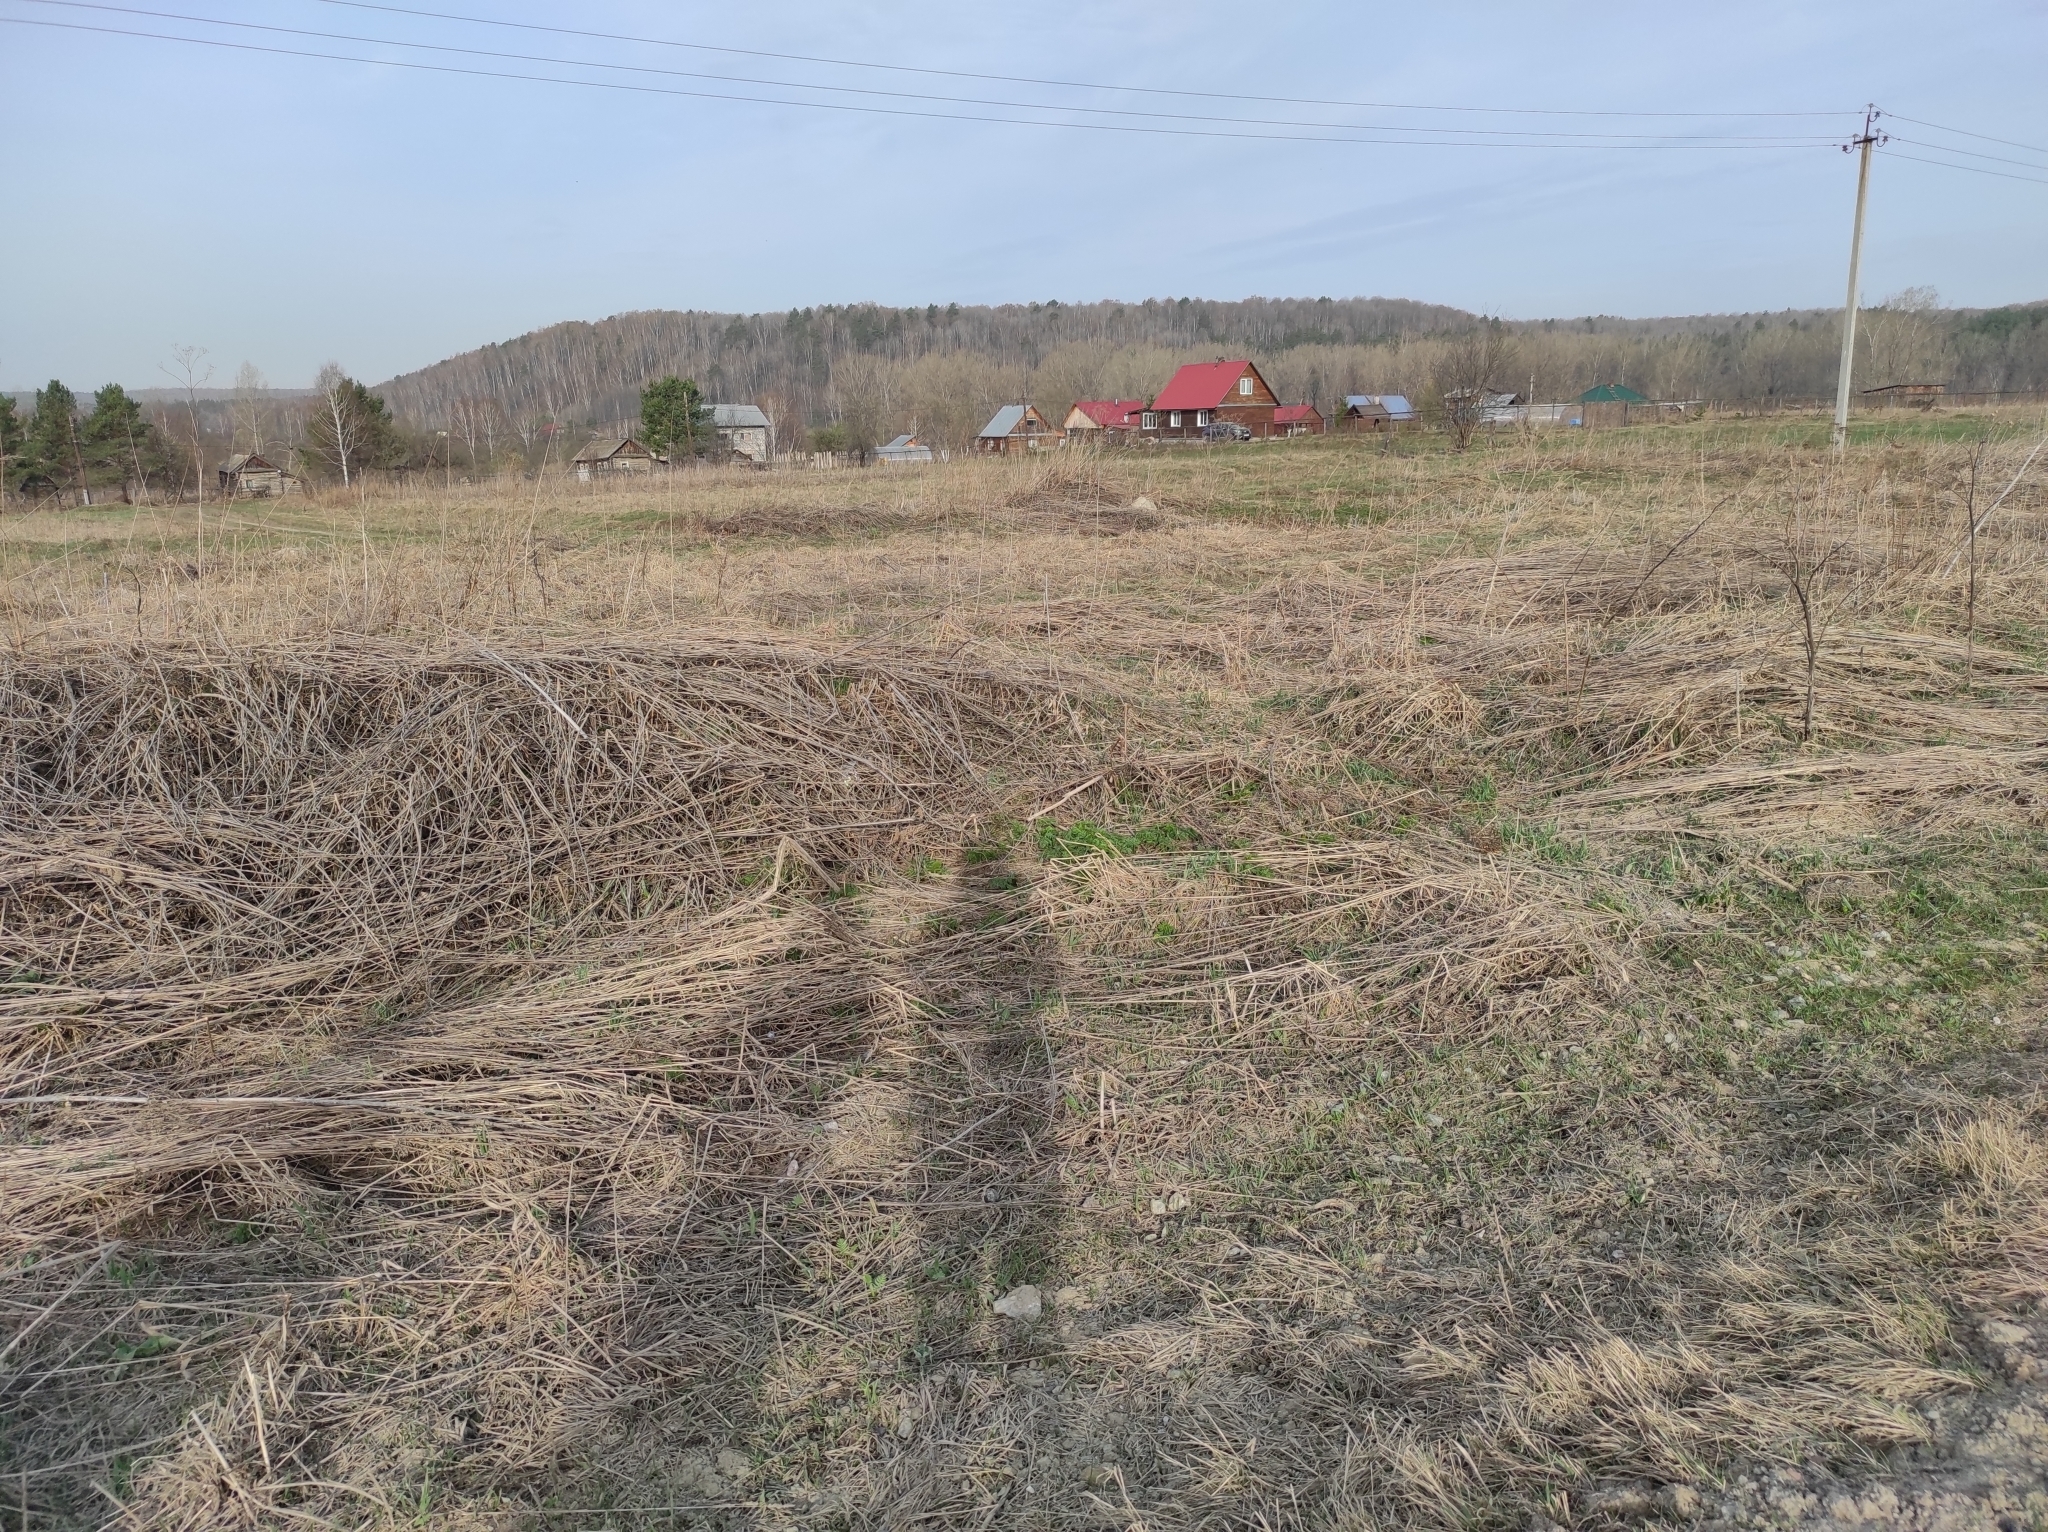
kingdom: Animalia
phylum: Chordata
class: Aves
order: Piciformes
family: Picidae
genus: Jynx
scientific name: Jynx torquilla
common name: Eurasian wryneck
